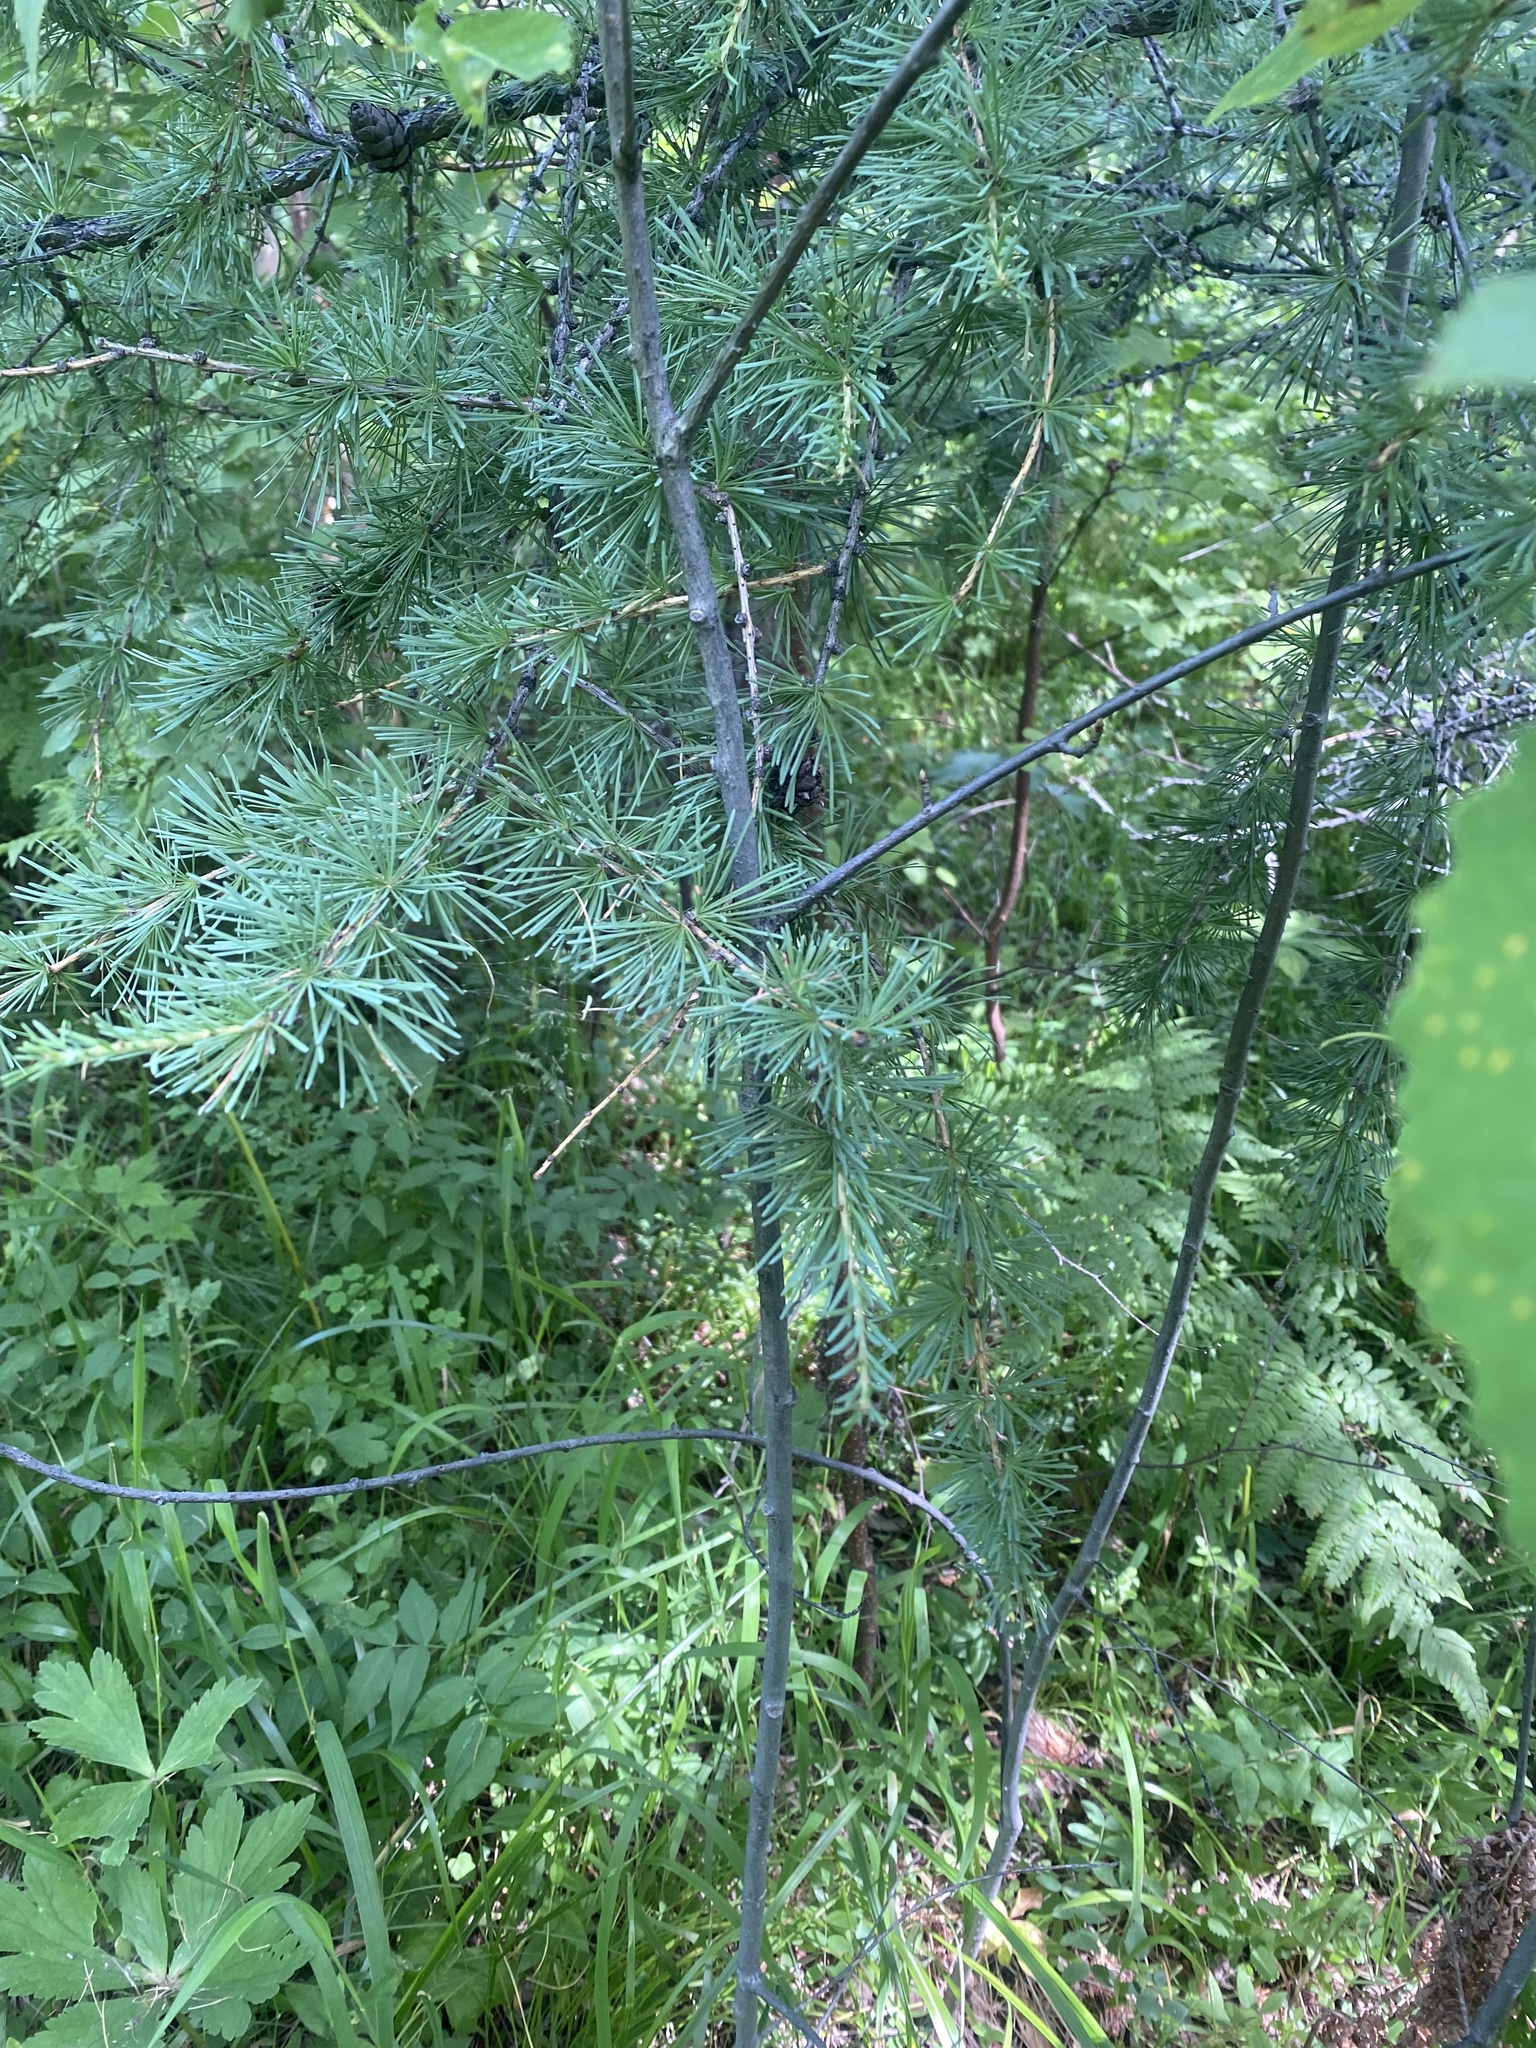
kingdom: Plantae
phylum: Tracheophyta
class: Pinopsida
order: Pinales
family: Pinaceae
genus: Larix
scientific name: Larix sibirica
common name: Siberian larch
